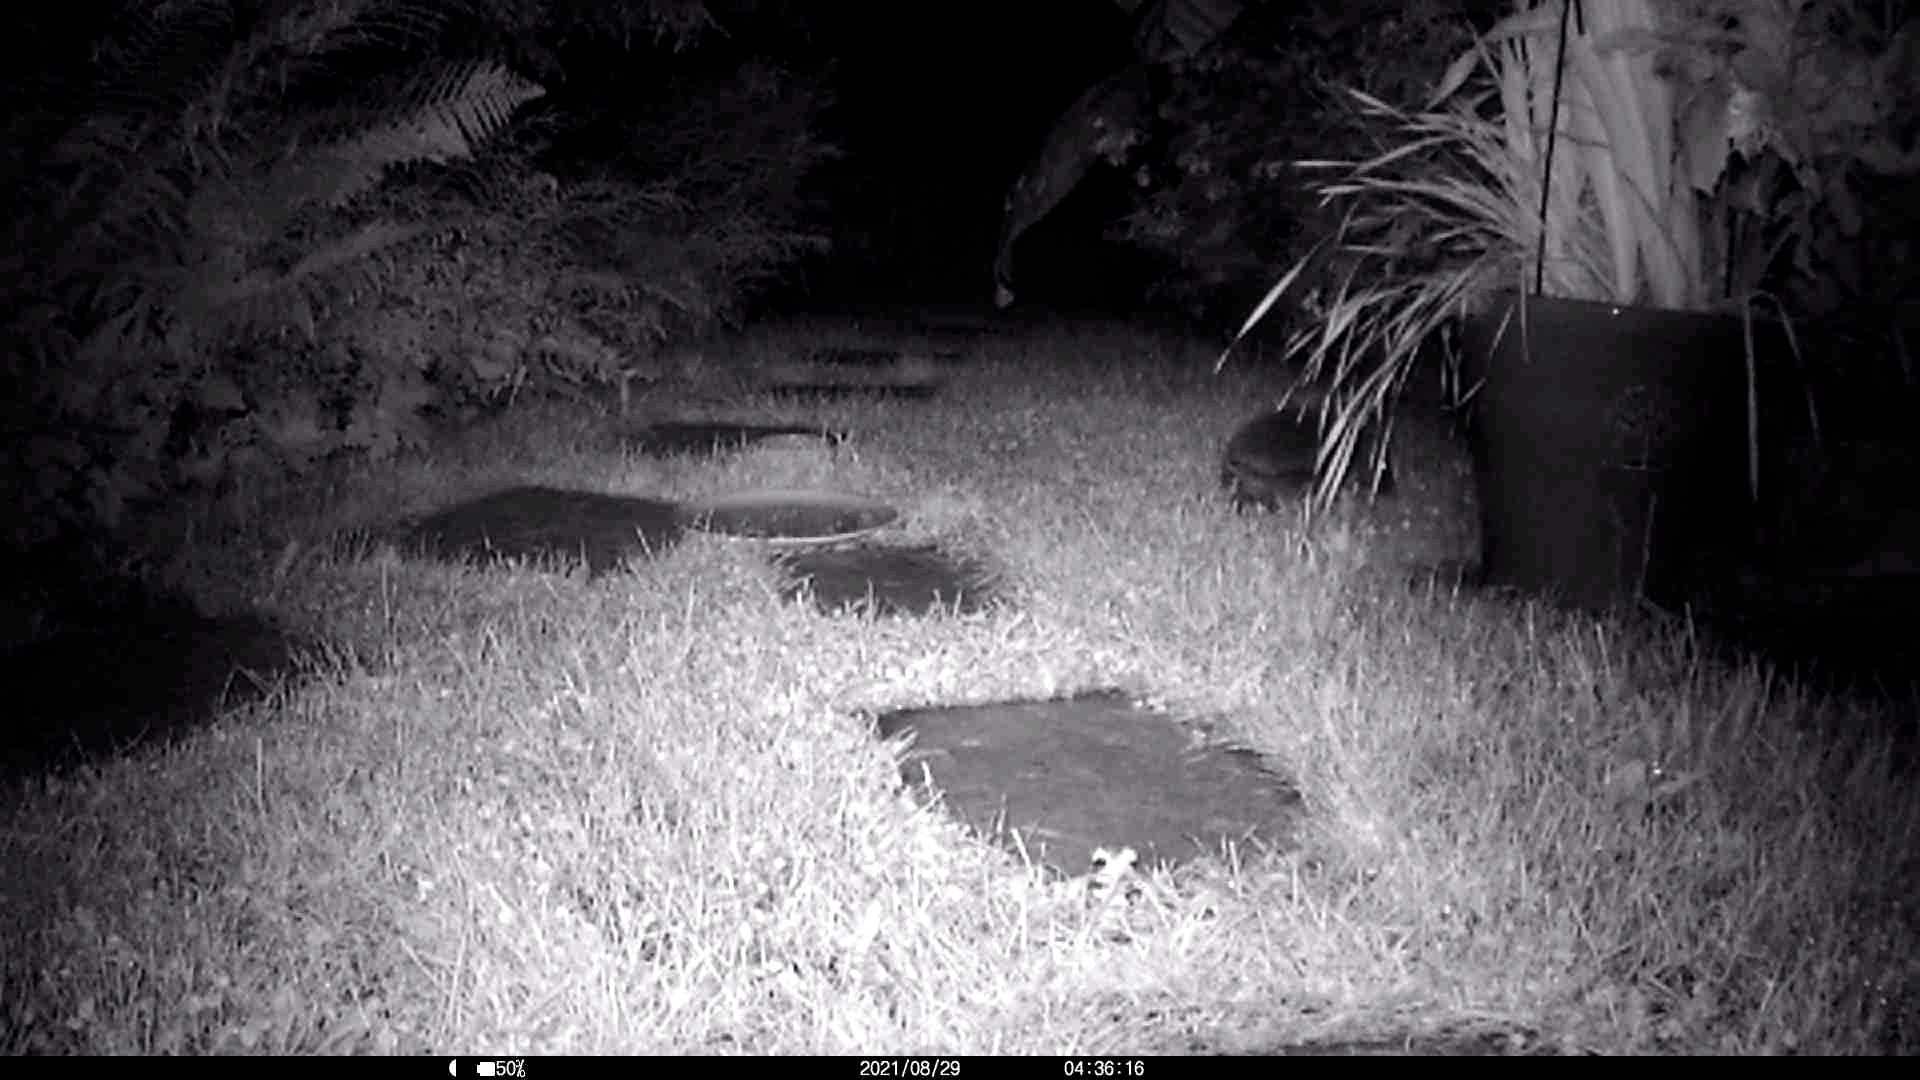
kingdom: Animalia
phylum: Chordata
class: Mammalia
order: Erinaceomorpha
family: Erinaceidae
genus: Erinaceus
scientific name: Erinaceus europaeus
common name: West european hedgehog
